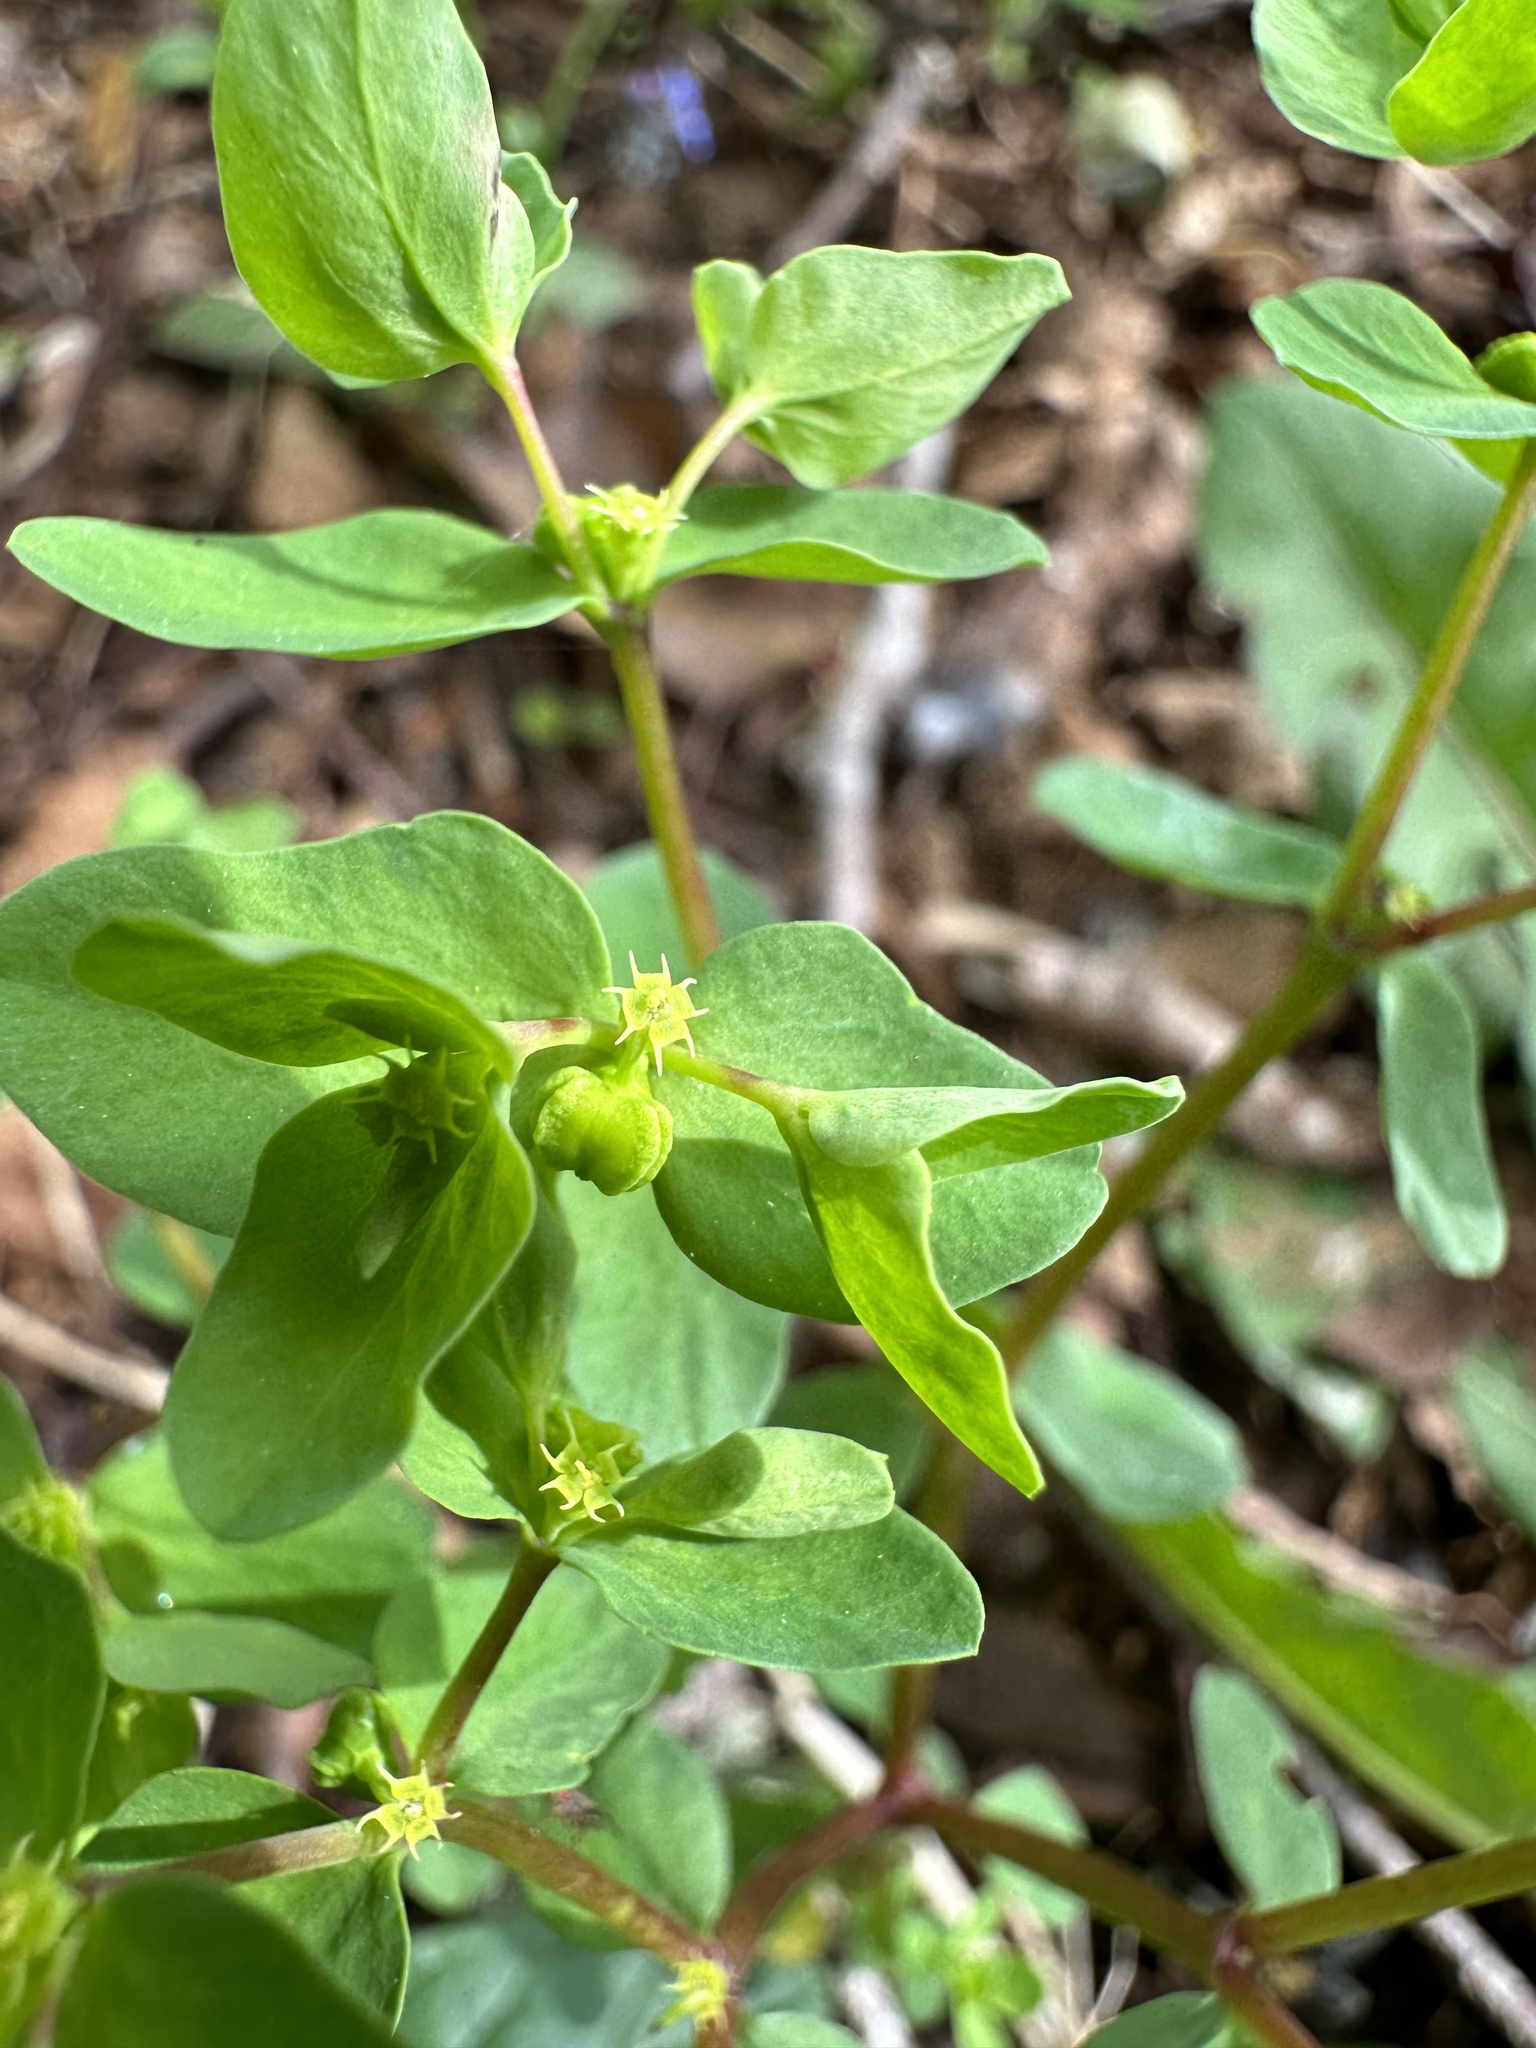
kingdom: Plantae
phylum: Tracheophyta
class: Magnoliopsida
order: Malpighiales
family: Euphorbiaceae
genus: Euphorbia
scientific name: Euphorbia peplus
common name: Petty spurge
